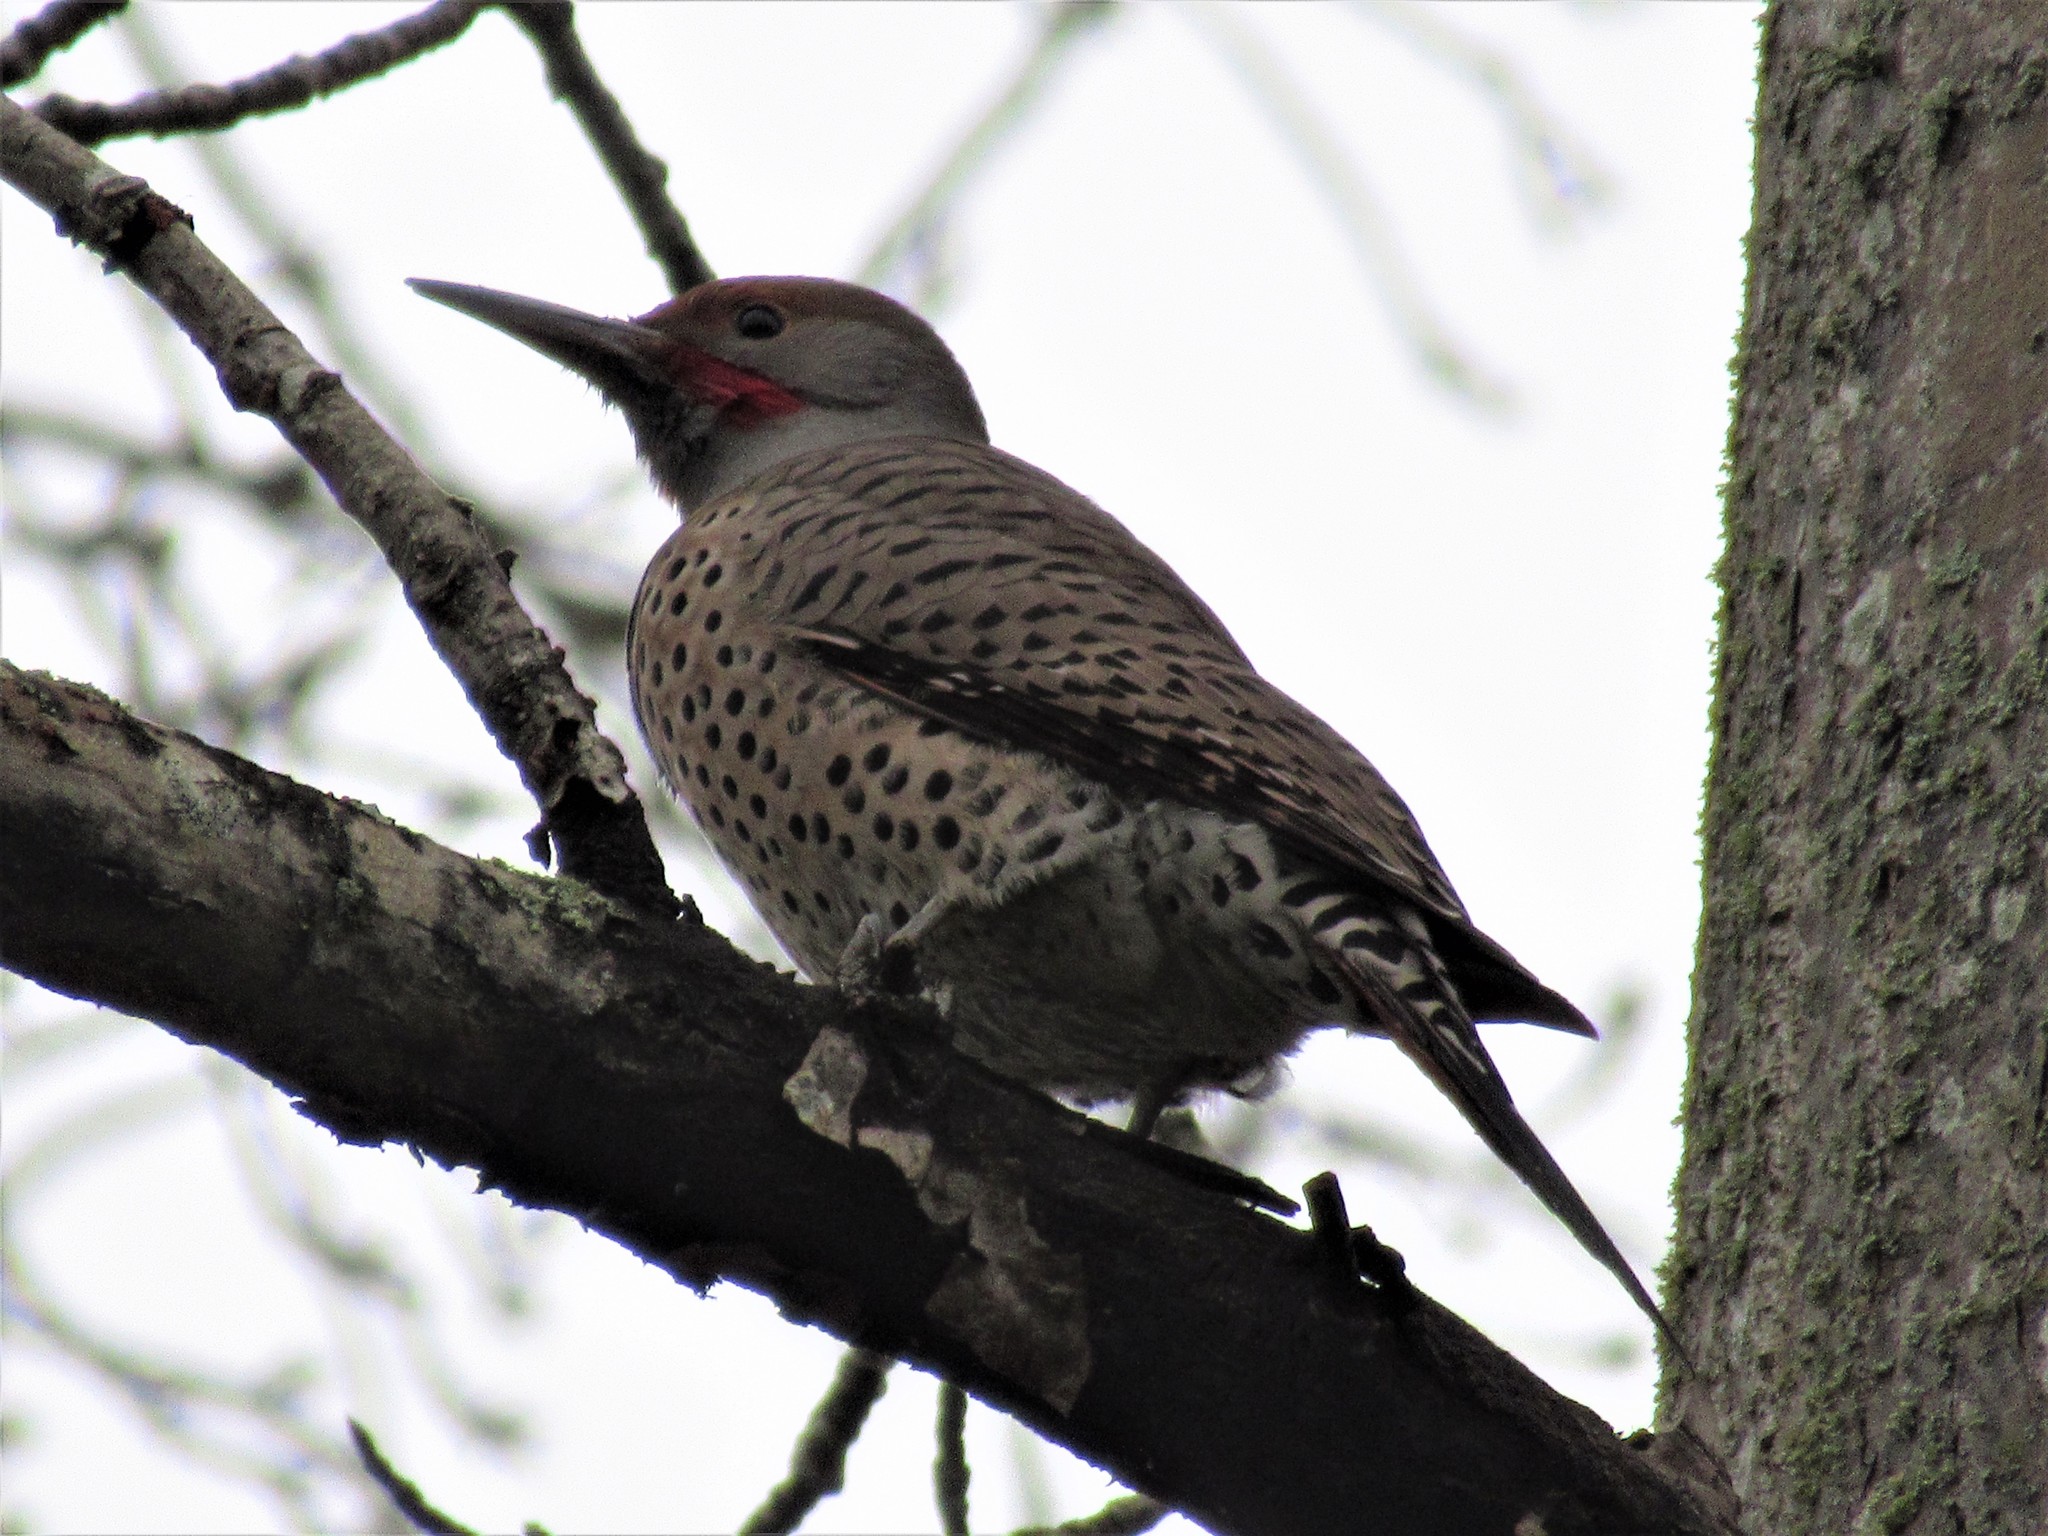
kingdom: Animalia
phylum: Chordata
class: Aves
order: Piciformes
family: Picidae
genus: Colaptes
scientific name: Colaptes auratus
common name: Northern flicker
